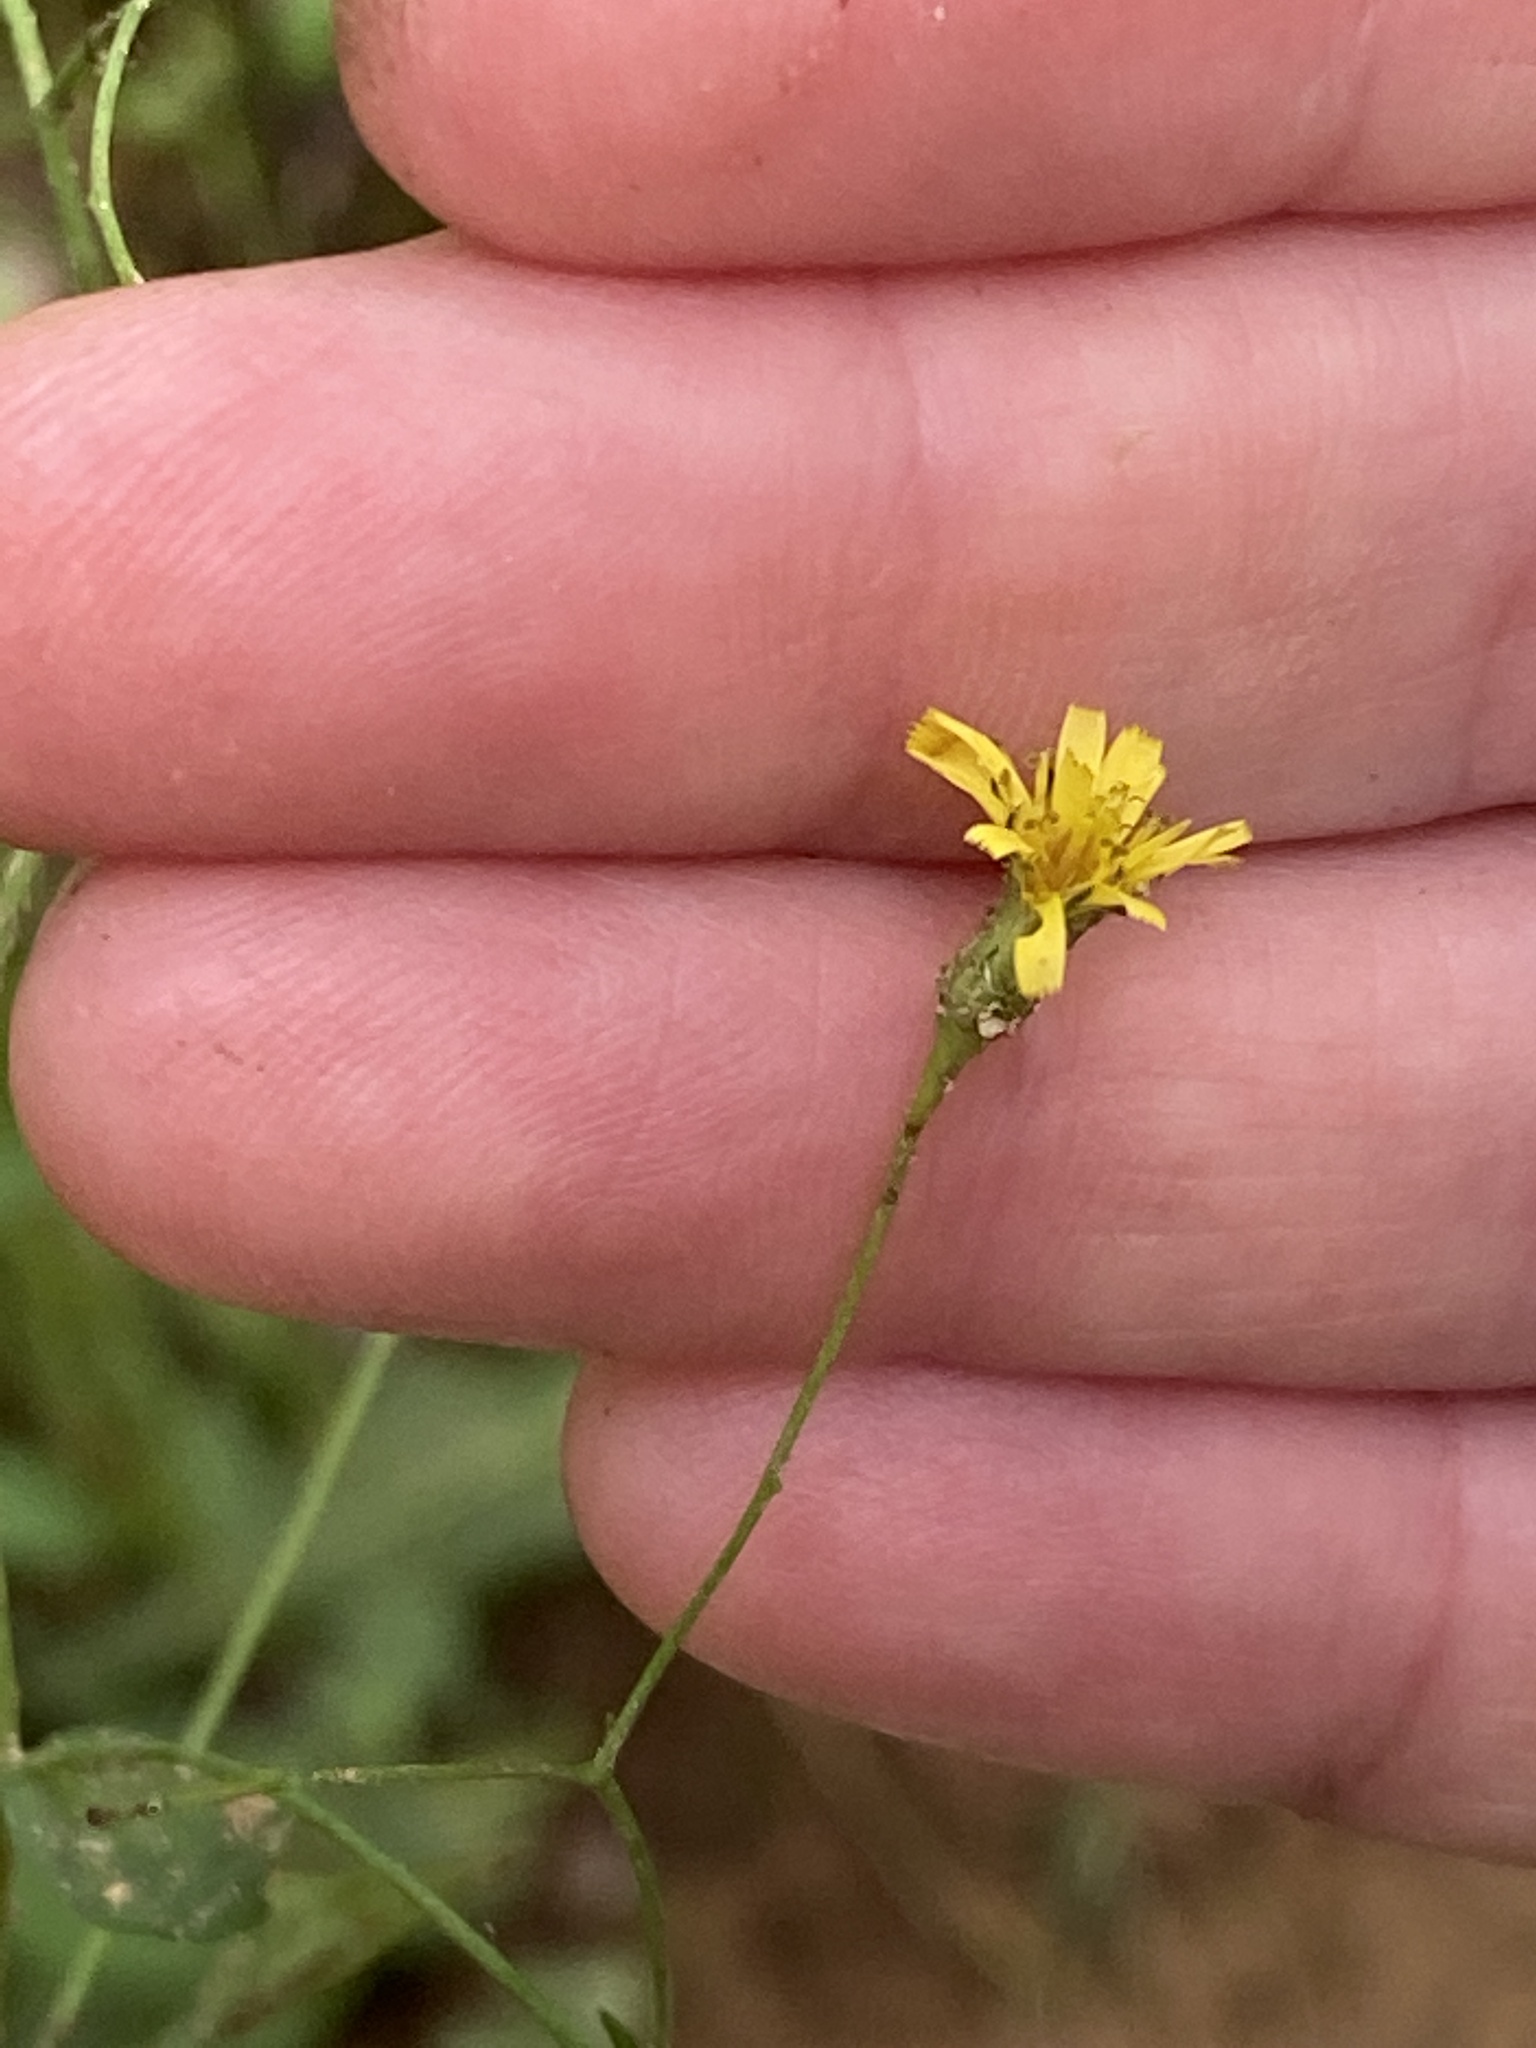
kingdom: Plantae
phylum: Tracheophyta
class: Magnoliopsida
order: Asterales
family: Asteraceae
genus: Hieracium
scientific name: Hieracium paniculatum
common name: Allegheny hawkweed
